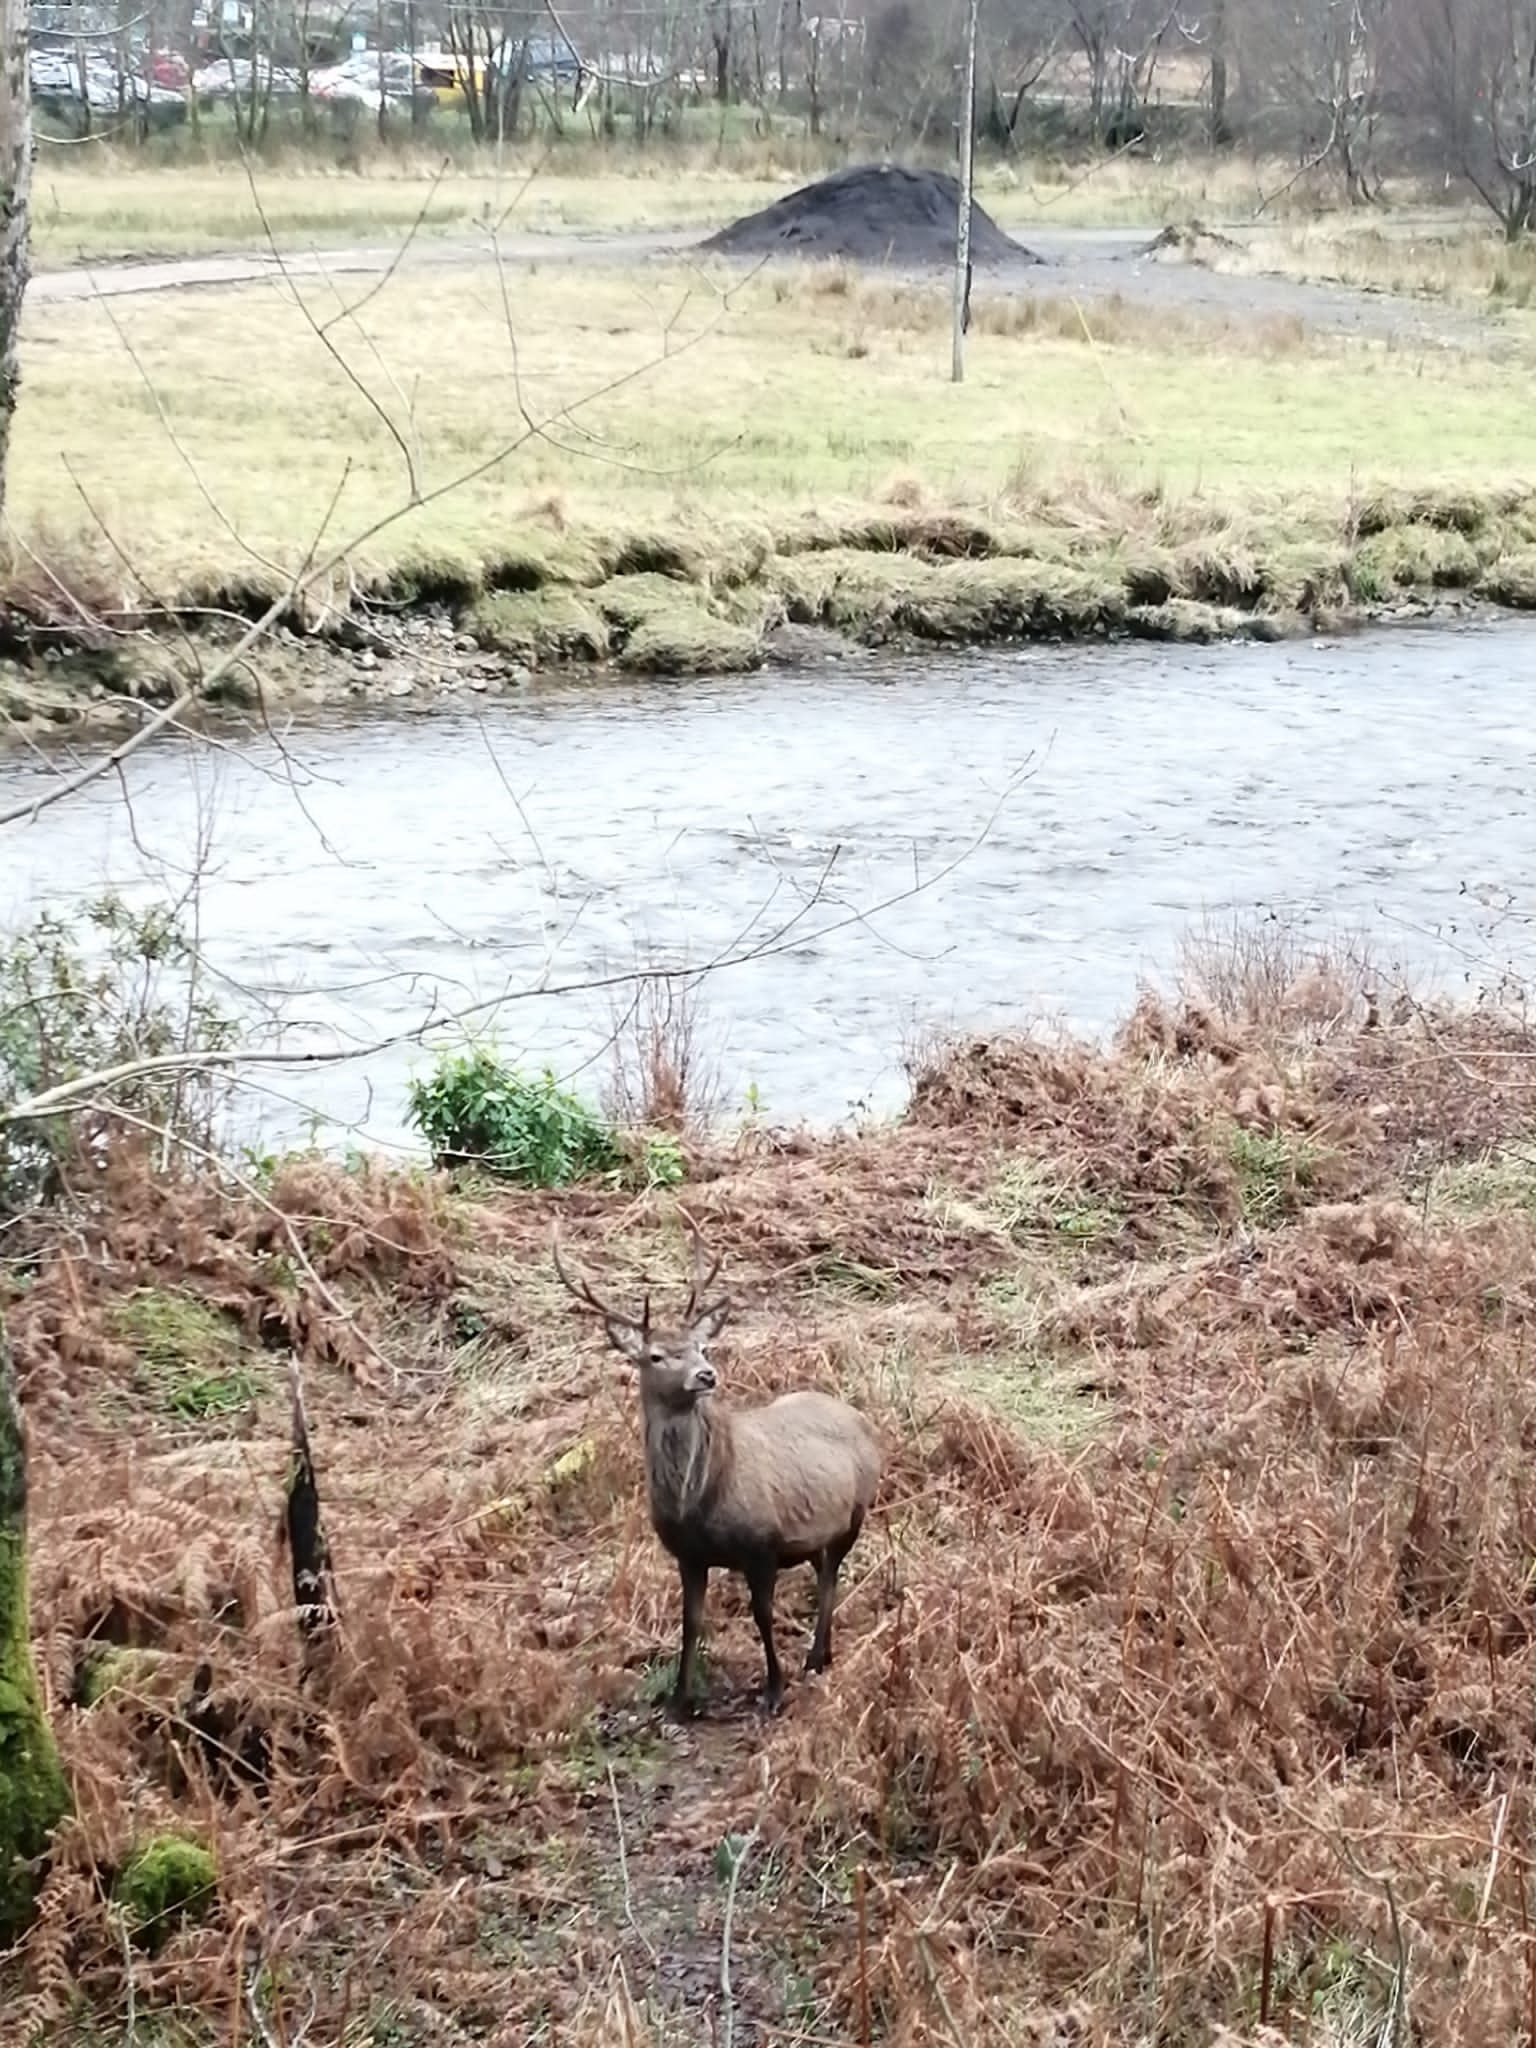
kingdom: Animalia
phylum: Chordata
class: Mammalia
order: Artiodactyla
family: Cervidae
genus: Cervus
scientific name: Cervus elaphus
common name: Red deer
